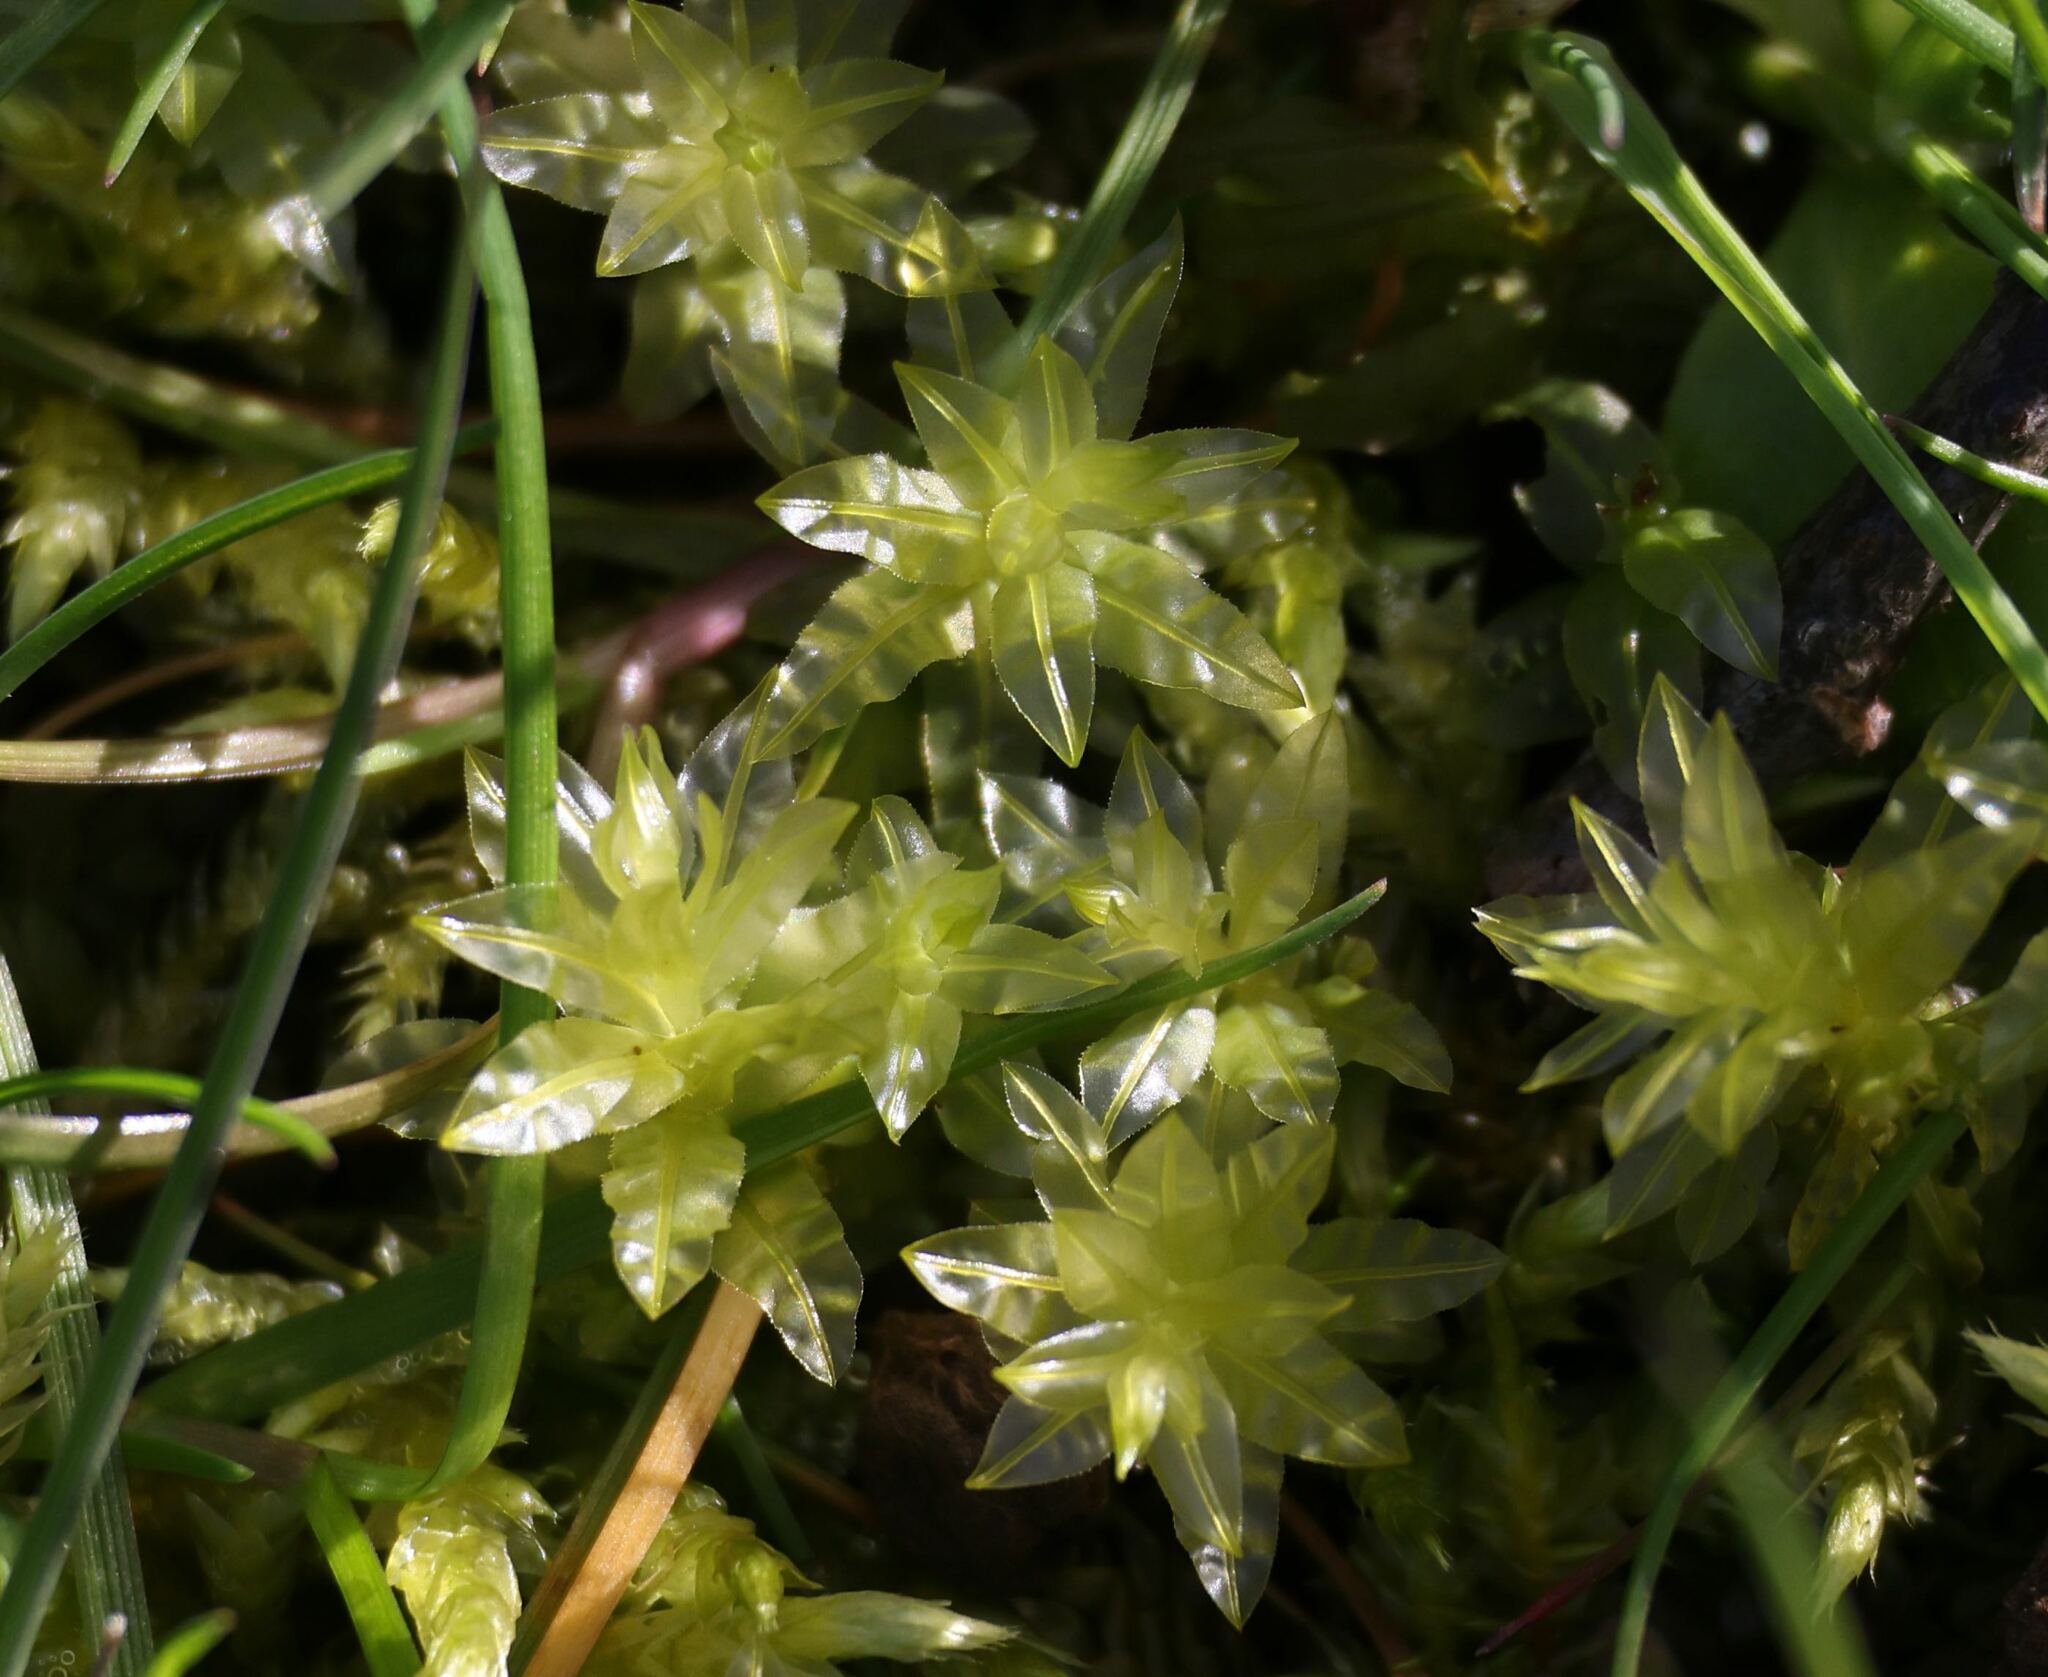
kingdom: Plantae
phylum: Bryophyta
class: Bryopsida
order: Bryales
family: Mniaceae
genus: Plagiomnium
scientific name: Plagiomnium undulatum
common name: Hart's-tongue thyme-moss
